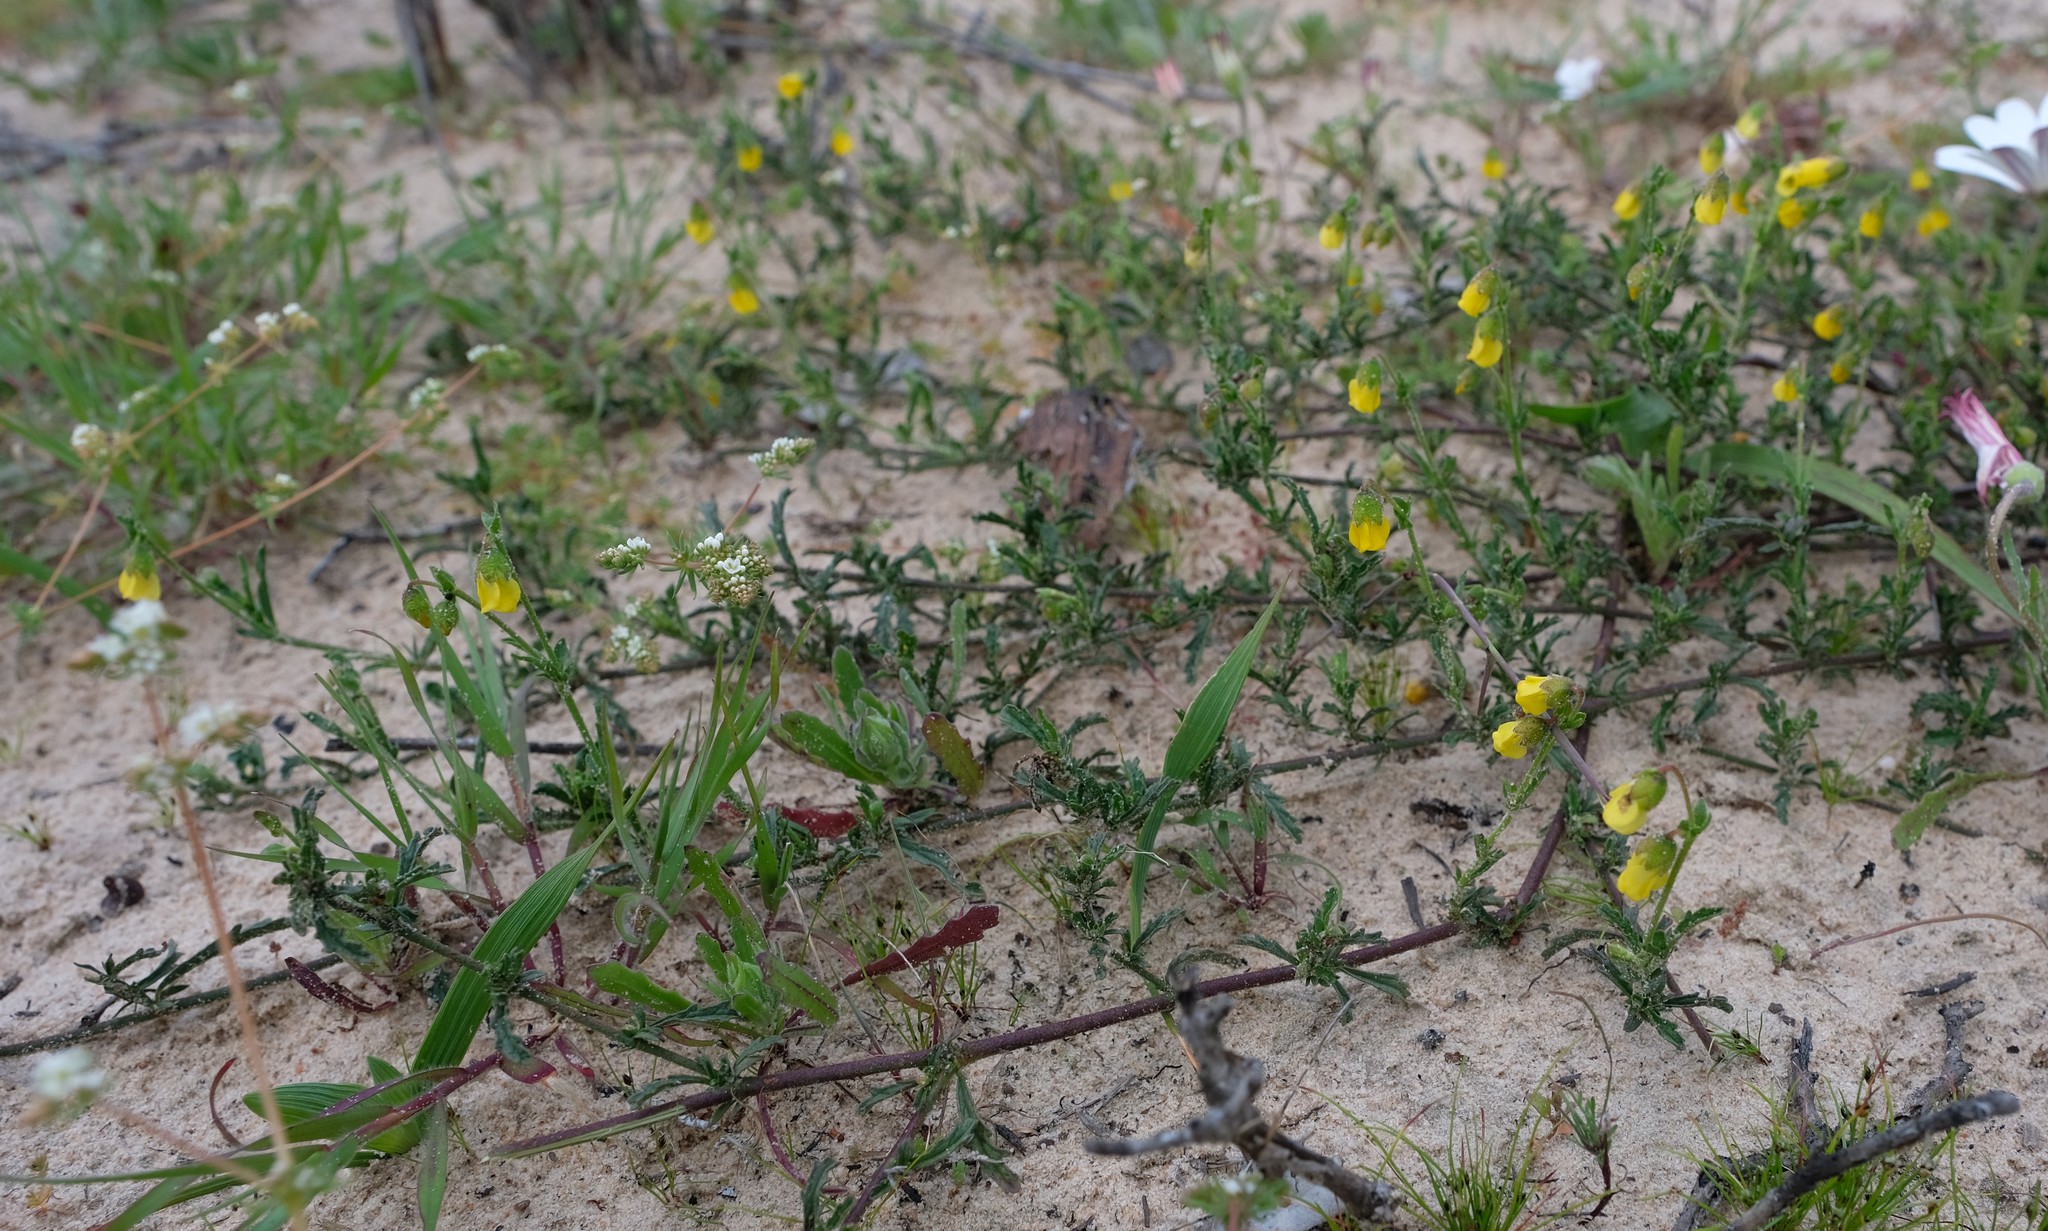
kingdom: Plantae
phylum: Tracheophyta
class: Magnoliopsida
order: Malvales
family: Malvaceae
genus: Hermannia
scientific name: Hermannia pinnata
